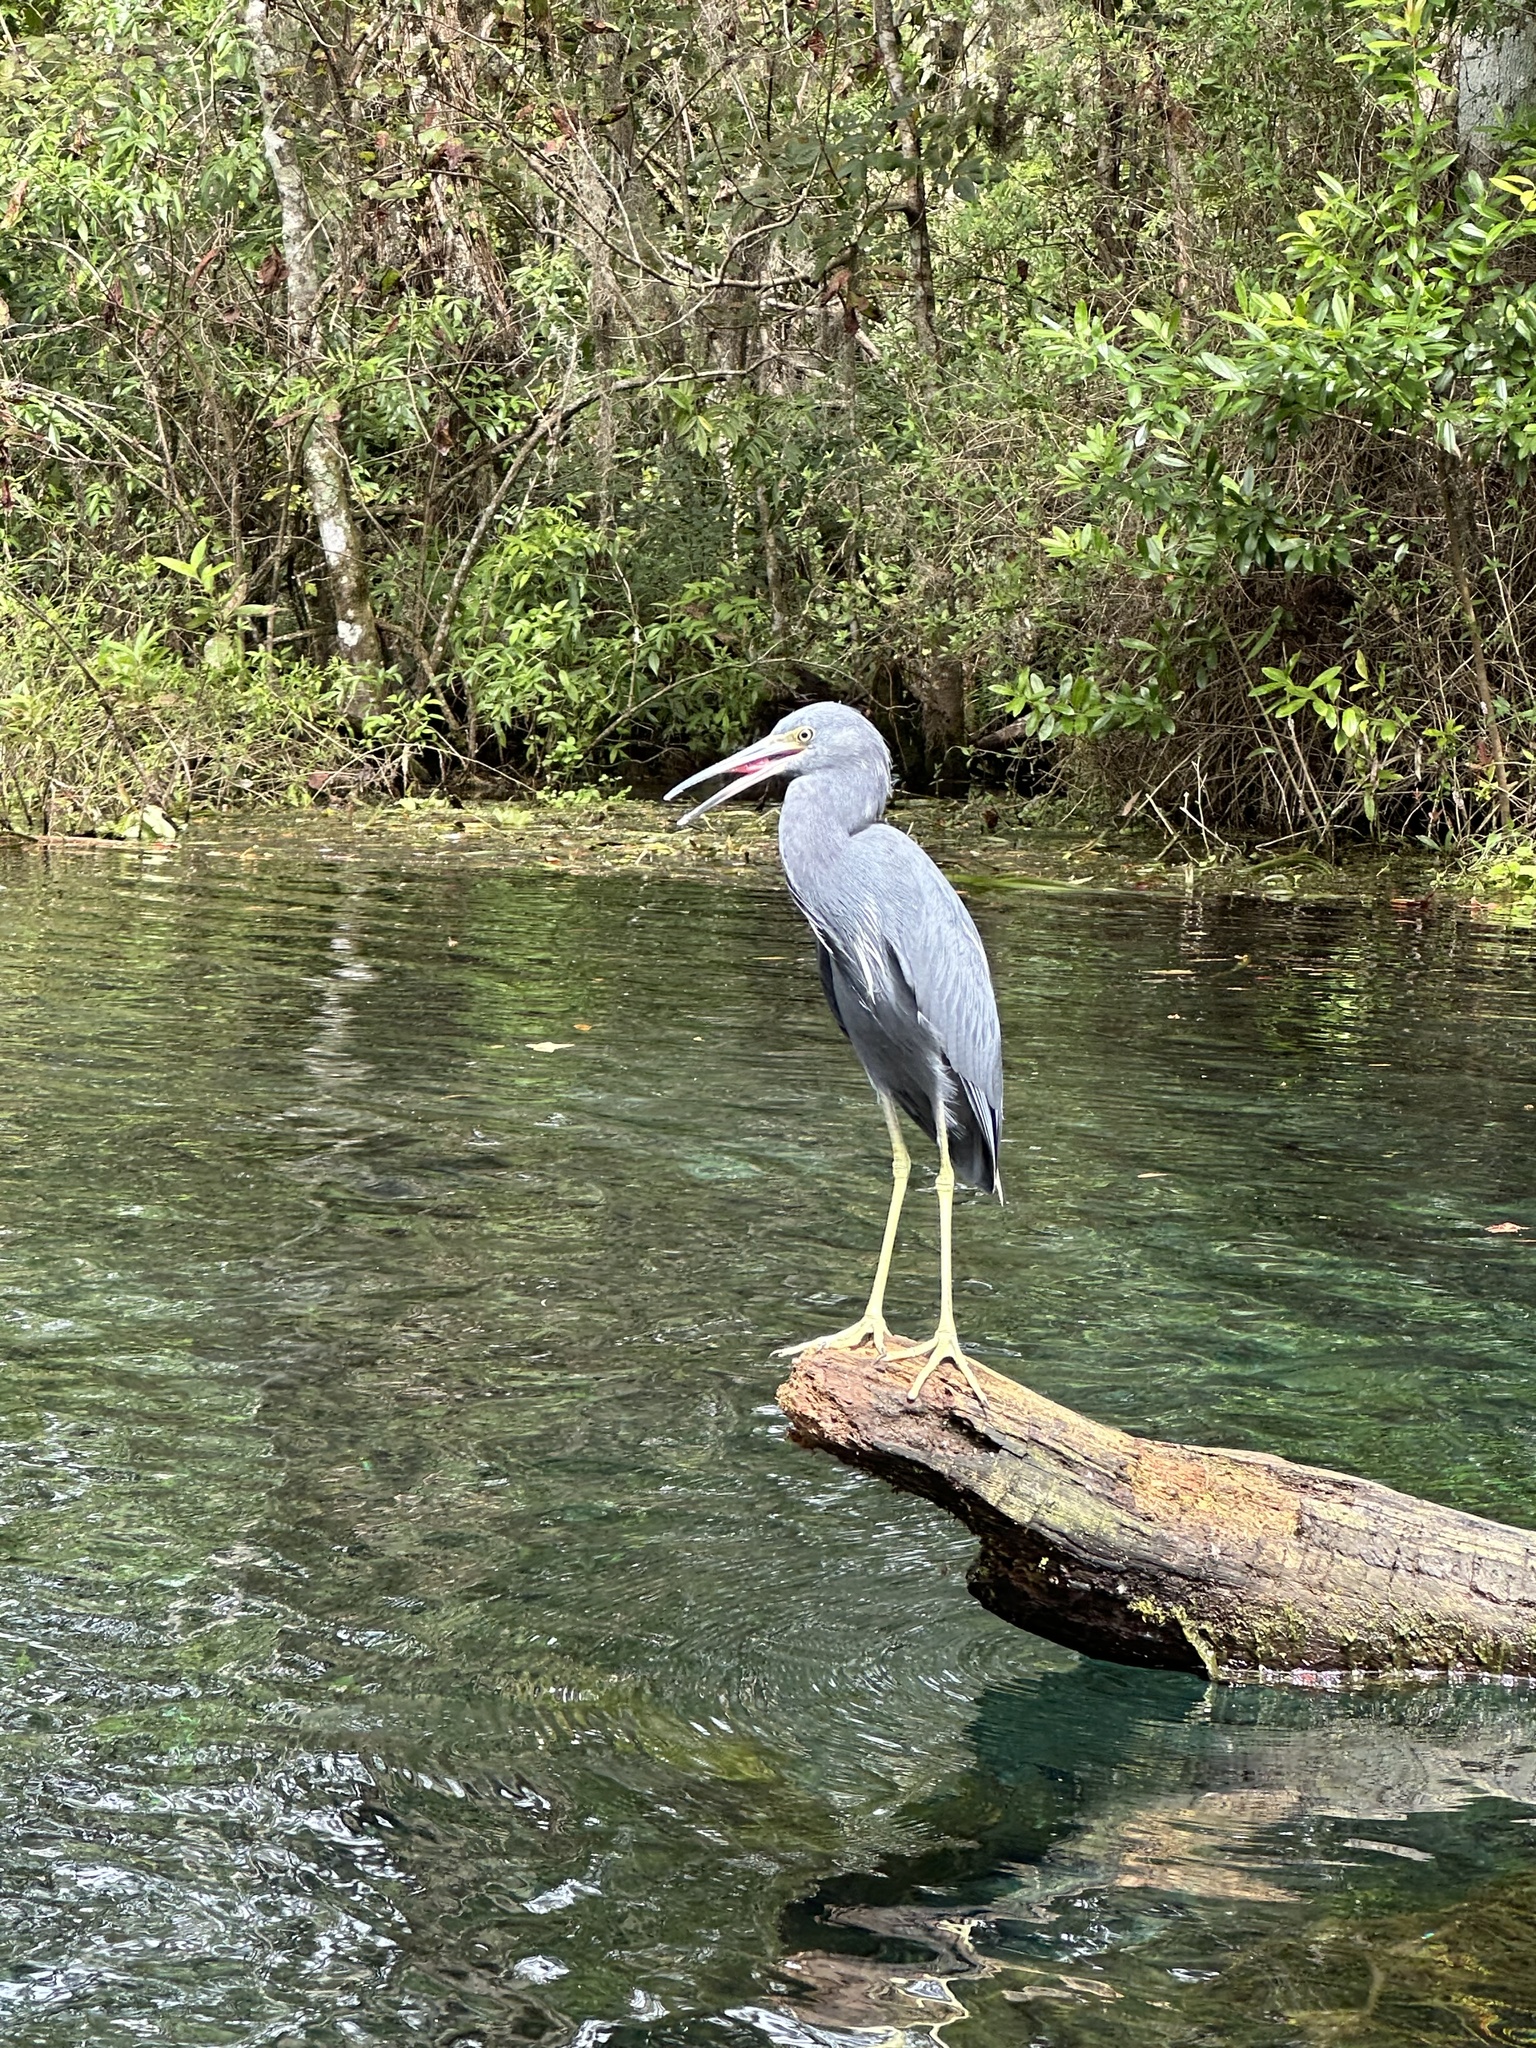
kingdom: Animalia
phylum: Chordata
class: Aves
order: Pelecaniformes
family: Ardeidae
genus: Egretta
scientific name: Egretta caerulea
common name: Little blue heron
